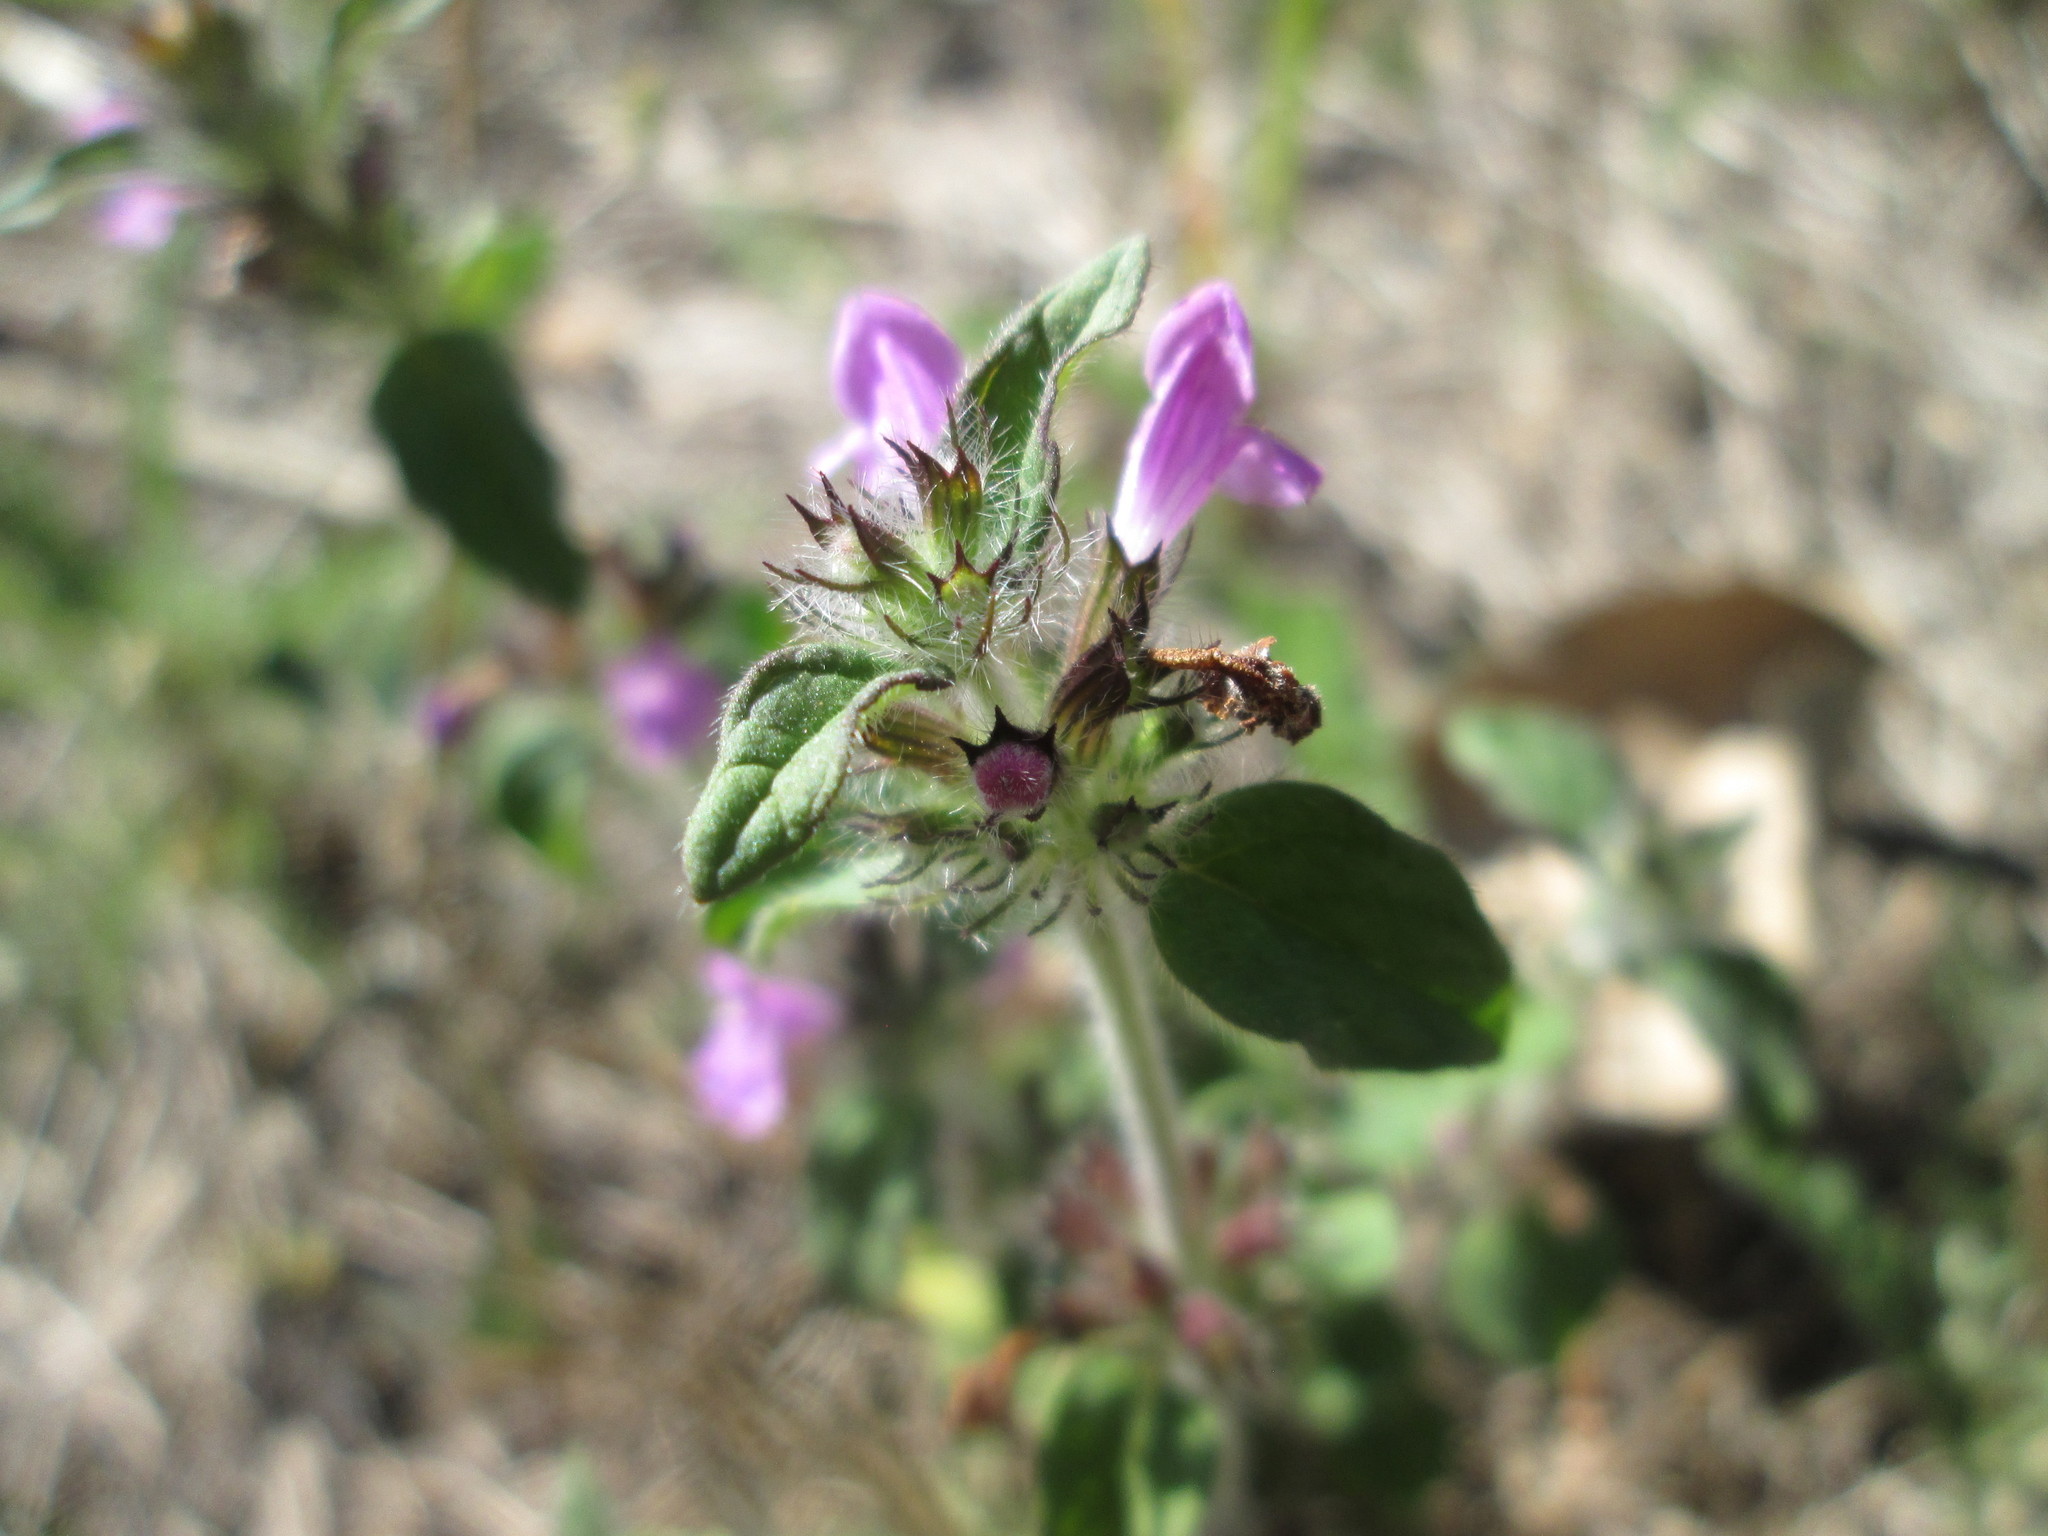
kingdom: Plantae
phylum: Tracheophyta
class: Magnoliopsida
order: Lamiales
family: Lamiaceae
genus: Clinopodium
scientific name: Clinopodium vulgare
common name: Wild basil
